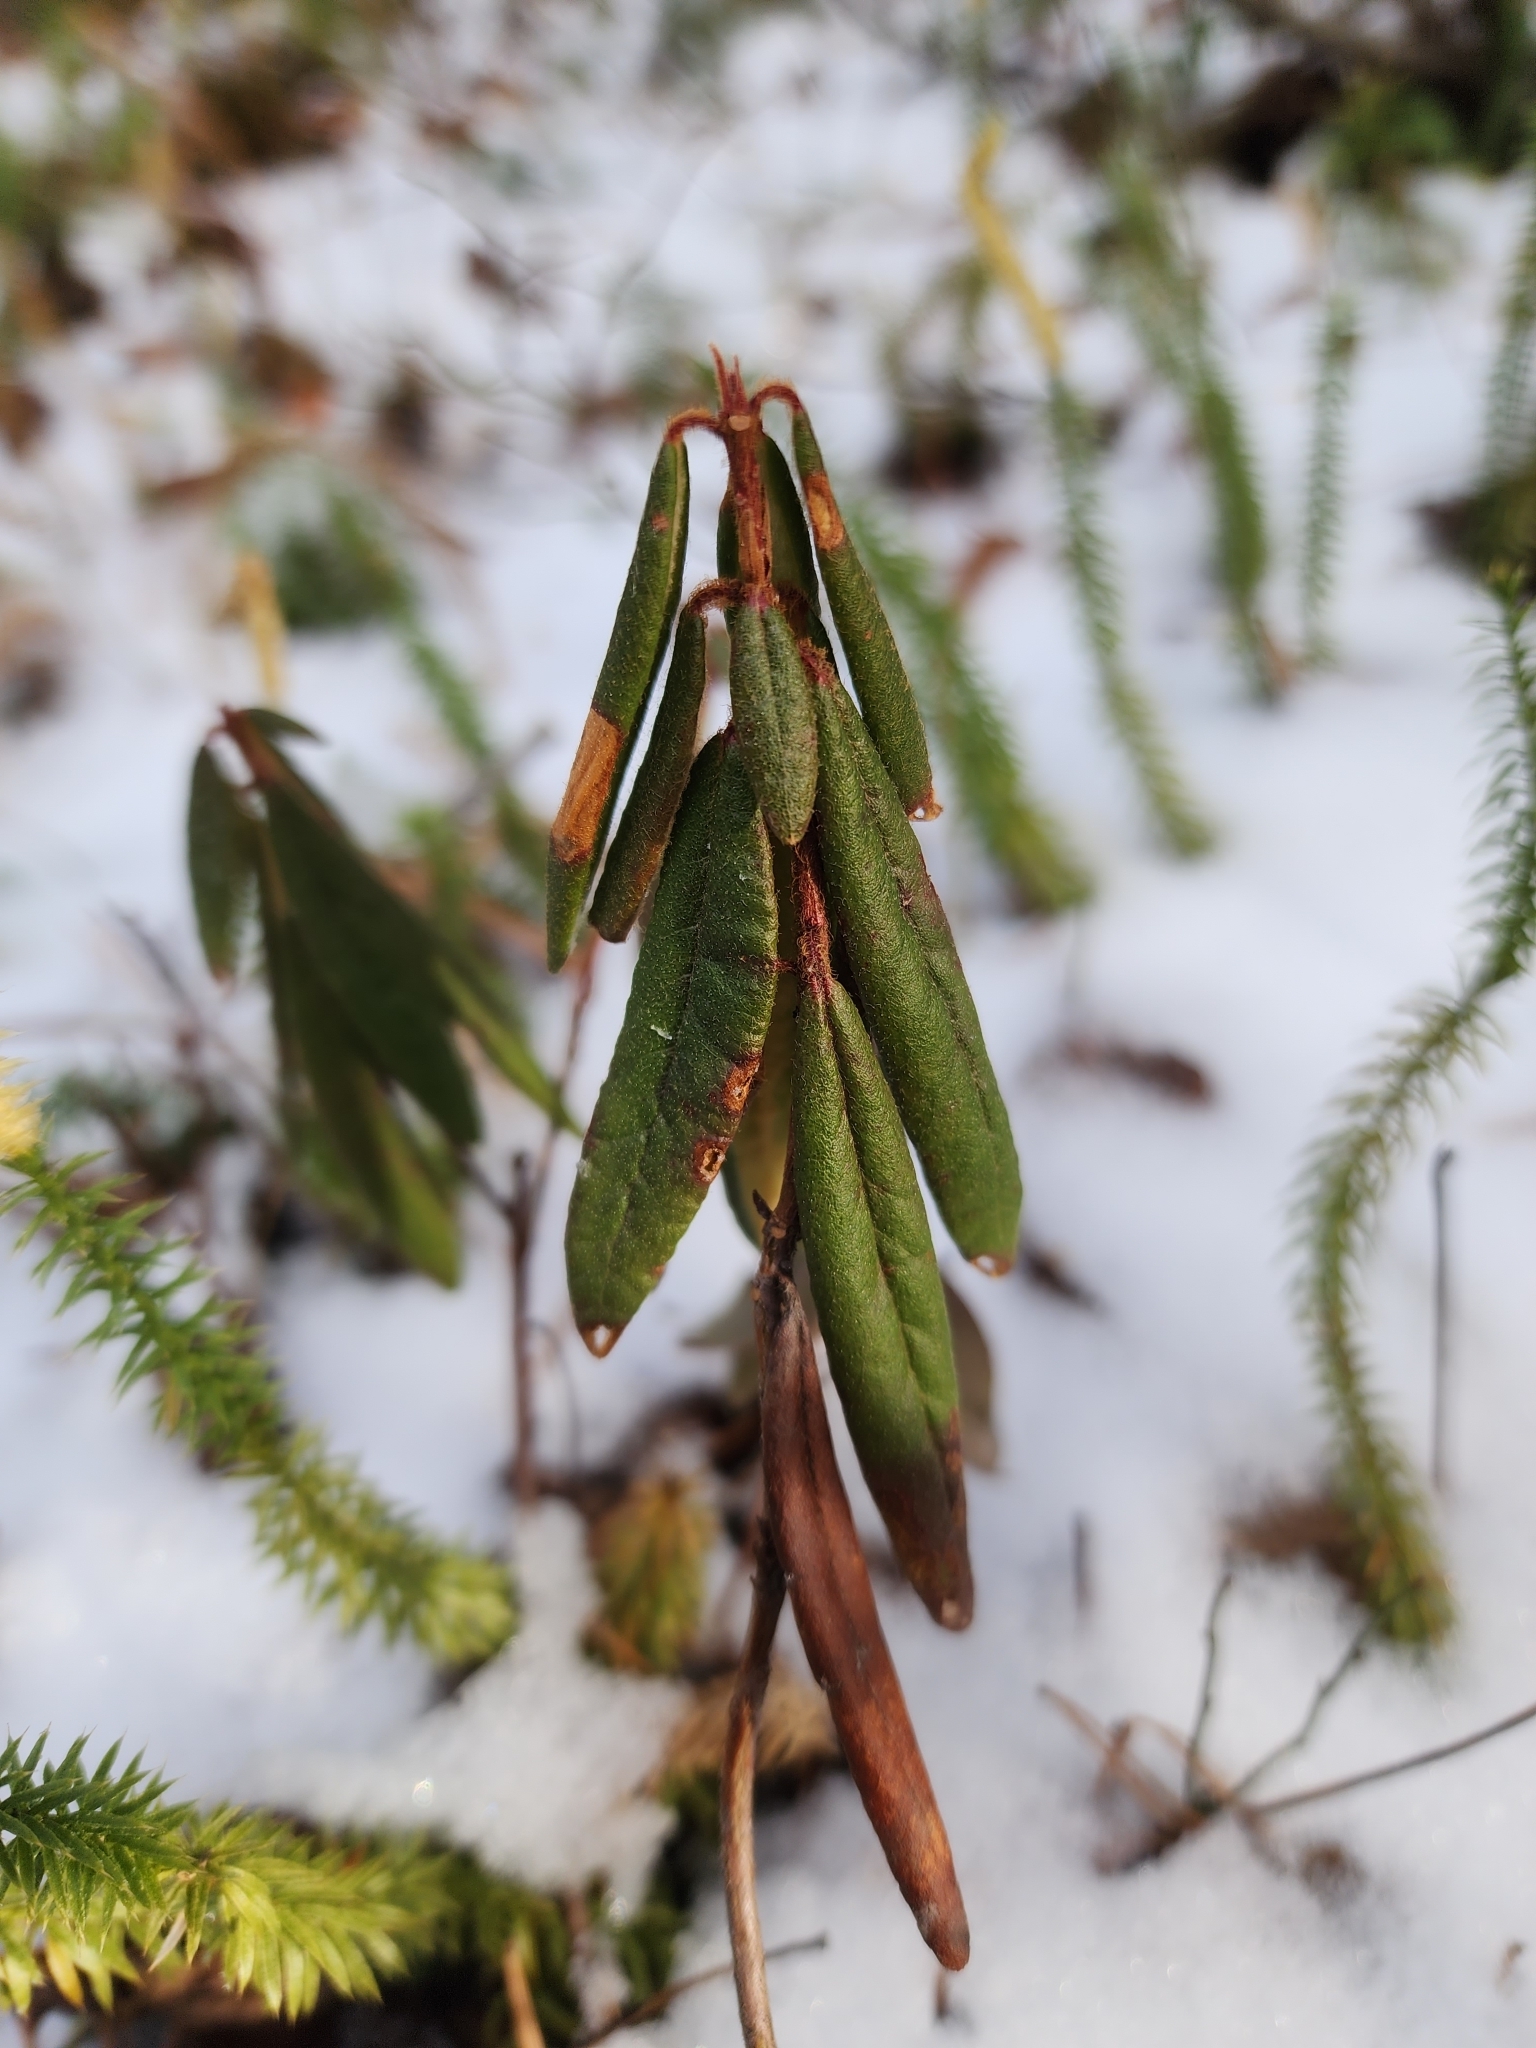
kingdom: Plantae
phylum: Tracheophyta
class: Magnoliopsida
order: Ericales
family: Ericaceae
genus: Rhododendron
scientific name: Rhododendron groenlandicum
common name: Bog labrador tea
